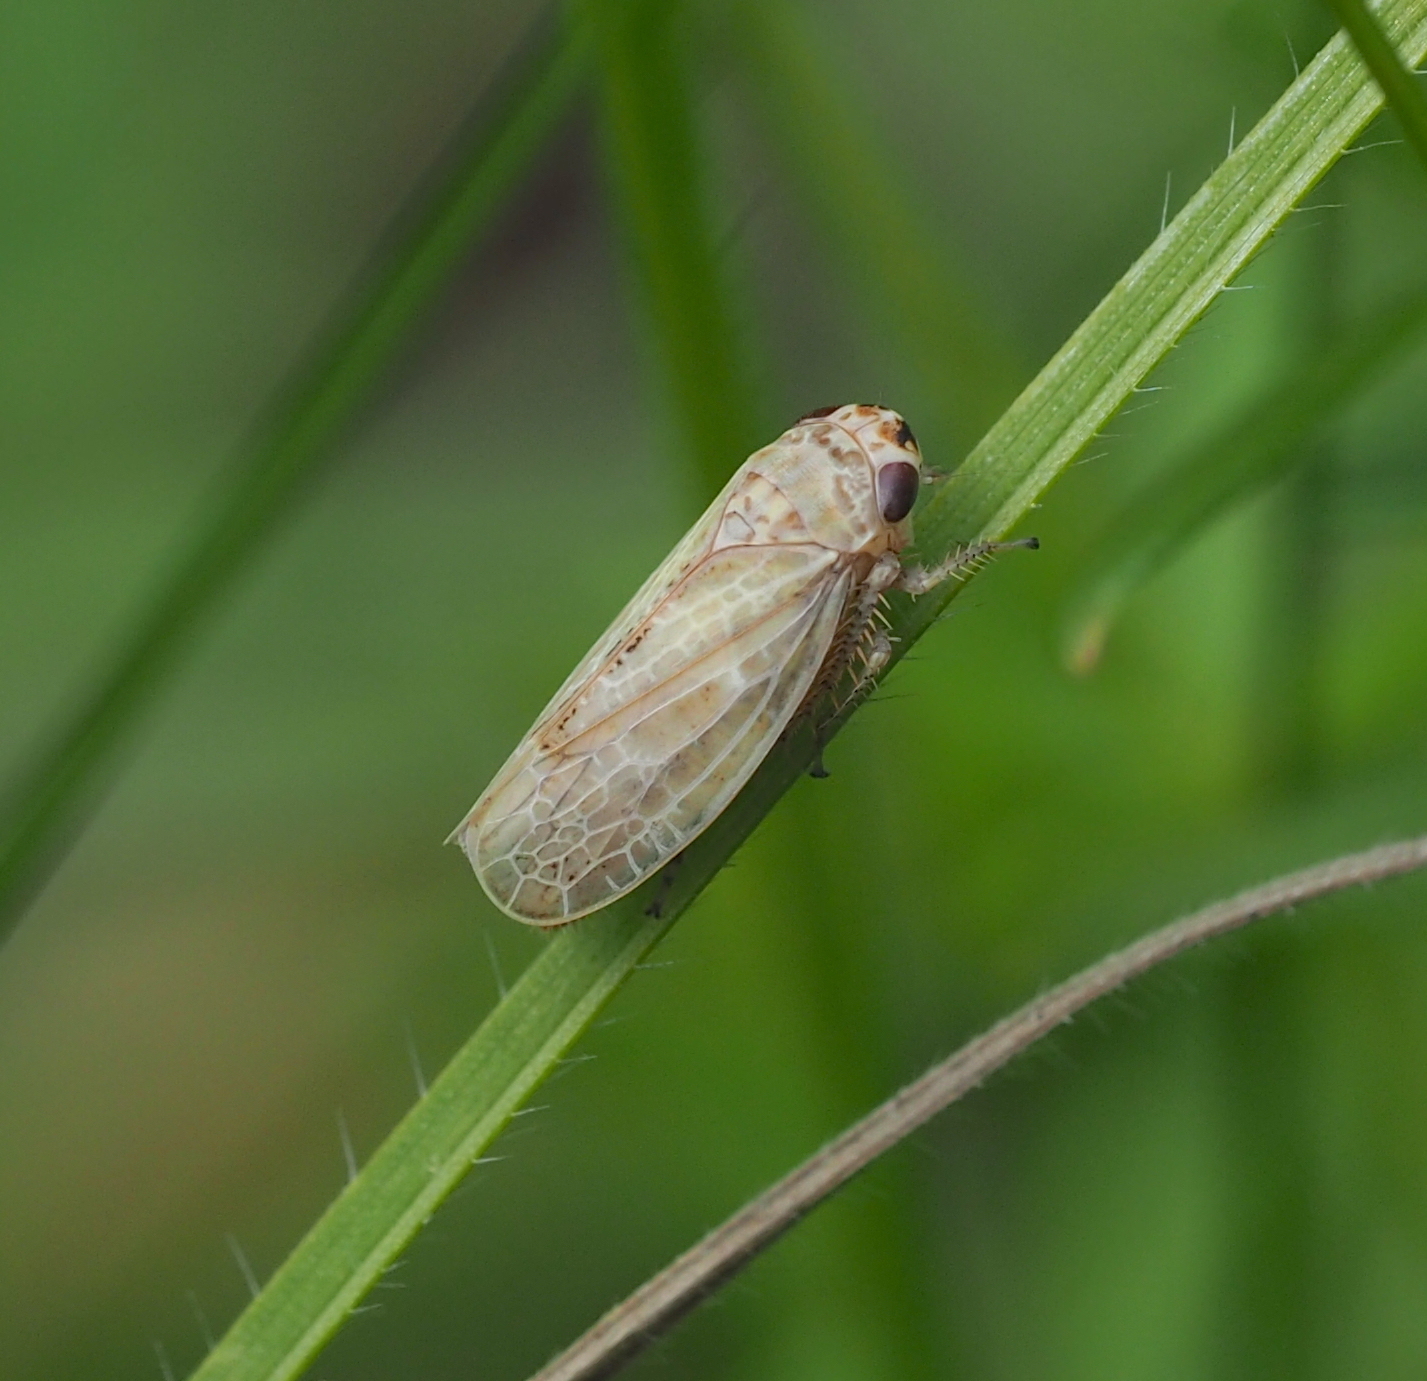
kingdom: Animalia
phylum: Arthropoda
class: Insecta
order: Hemiptera
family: Cicadellidae
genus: Allygidius
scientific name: Allygidius abbreviatus
